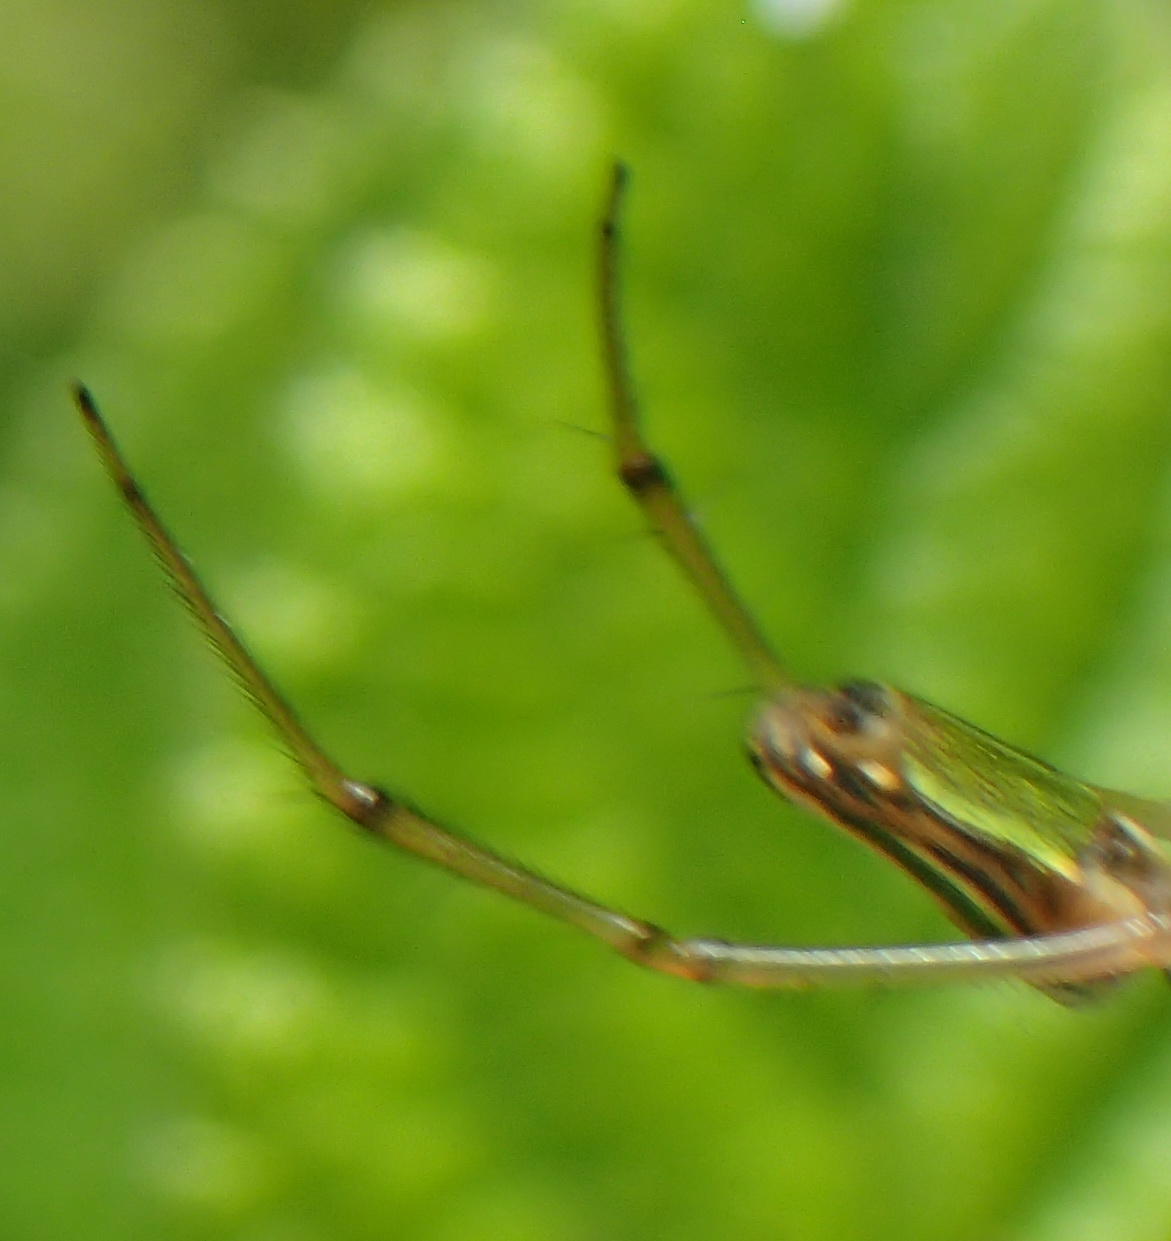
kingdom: Animalia
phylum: Arthropoda
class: Arachnida
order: Araneae
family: Tetragnathidae
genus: Leucauge
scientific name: Leucauge levanderi
